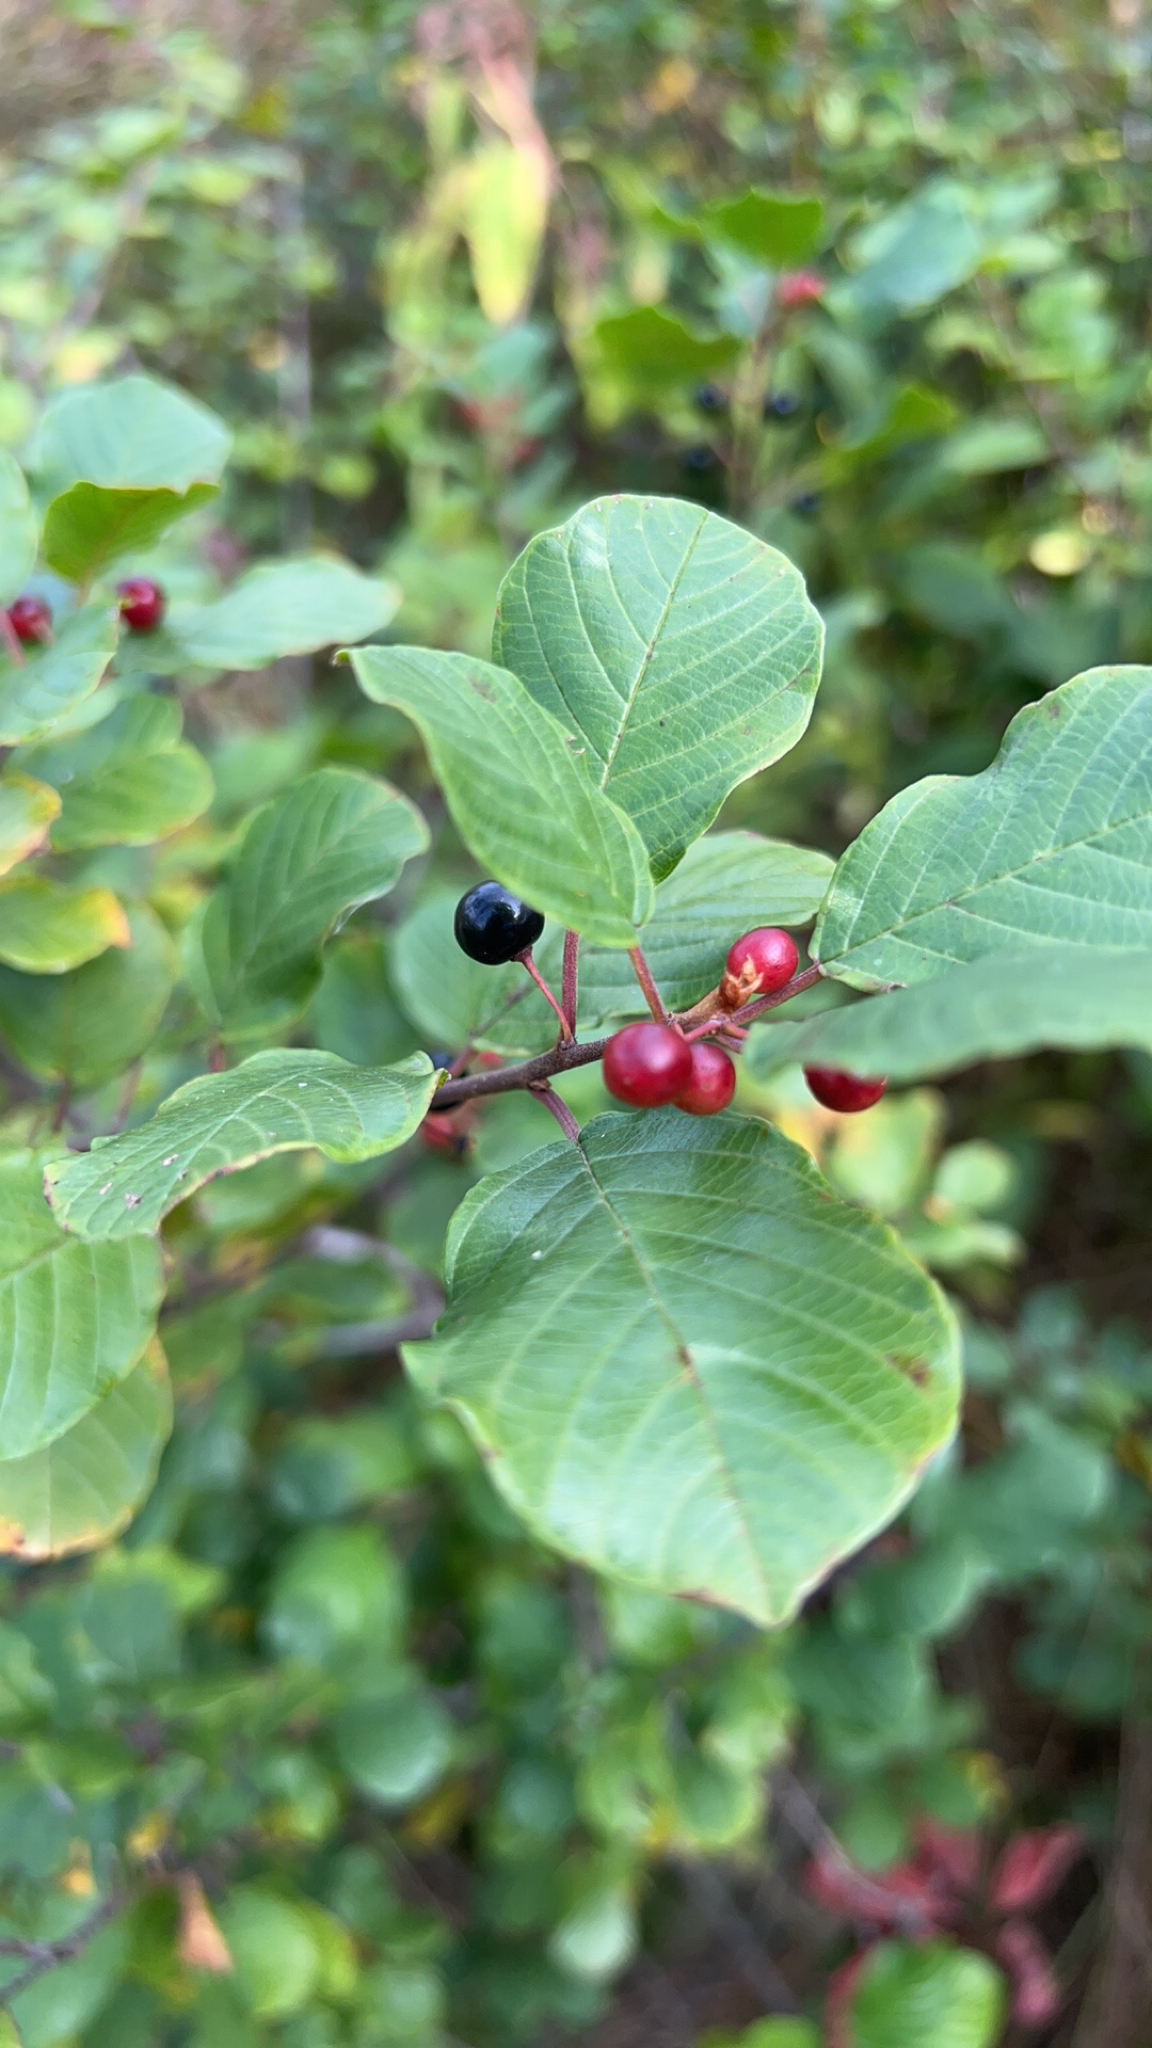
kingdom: Plantae
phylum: Tracheophyta
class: Magnoliopsida
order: Rosales
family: Rhamnaceae
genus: Frangula
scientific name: Frangula alnus
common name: Alder buckthorn
